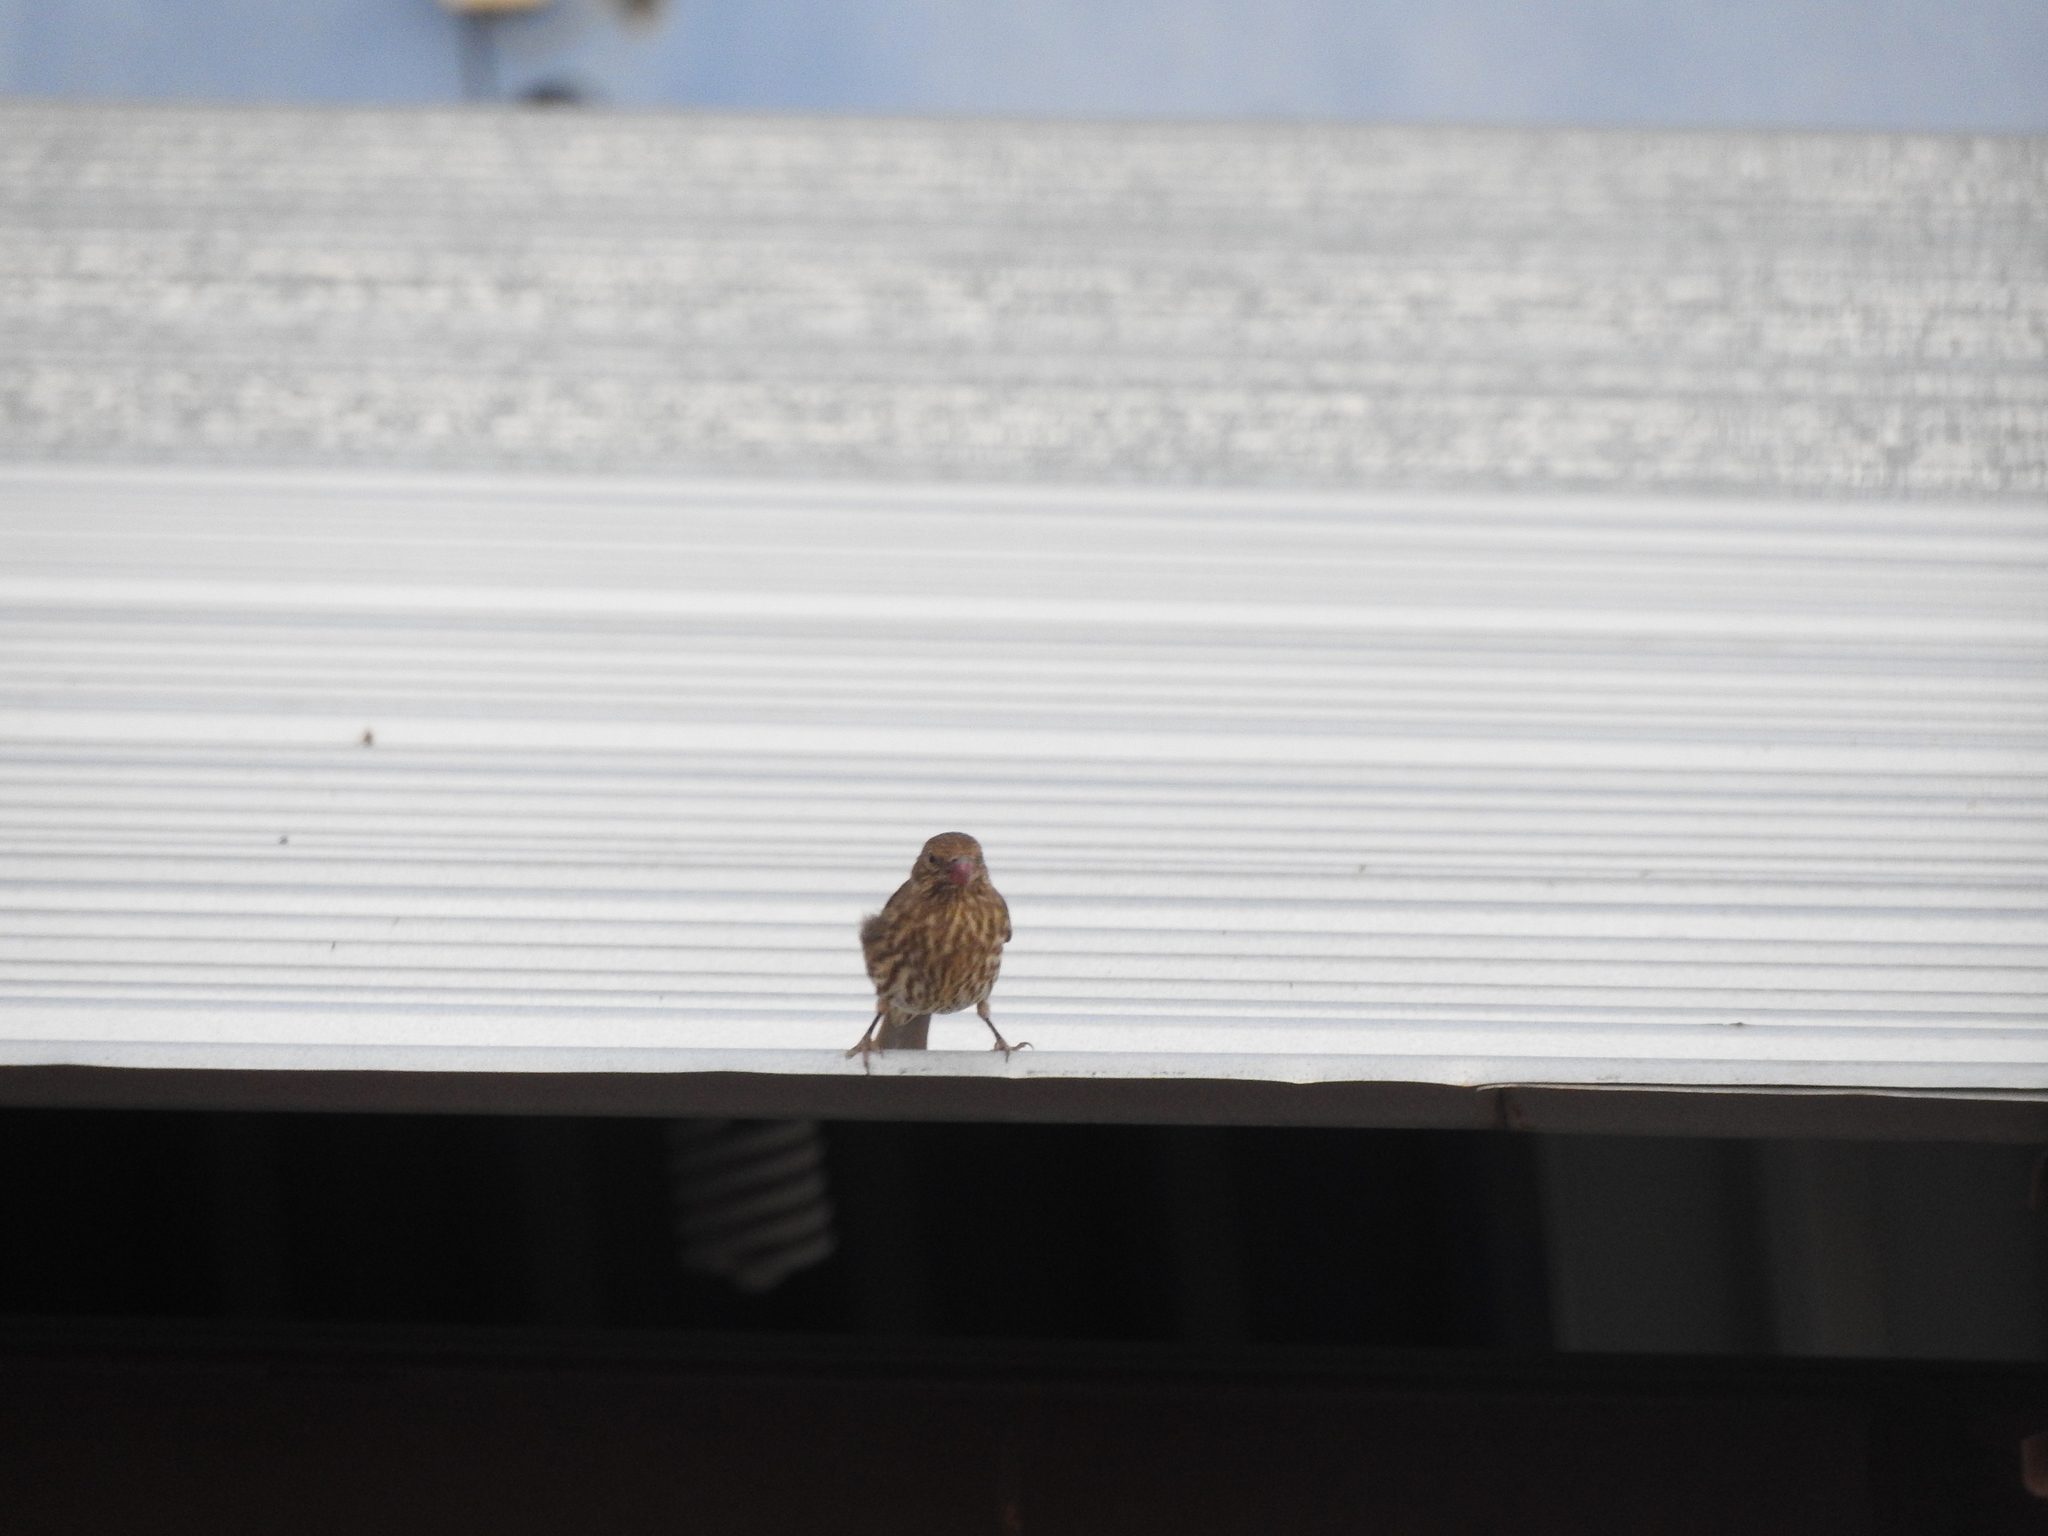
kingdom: Animalia
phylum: Chordata
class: Aves
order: Passeriformes
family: Fringillidae
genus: Haemorhous
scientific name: Haemorhous mexicanus
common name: House finch
